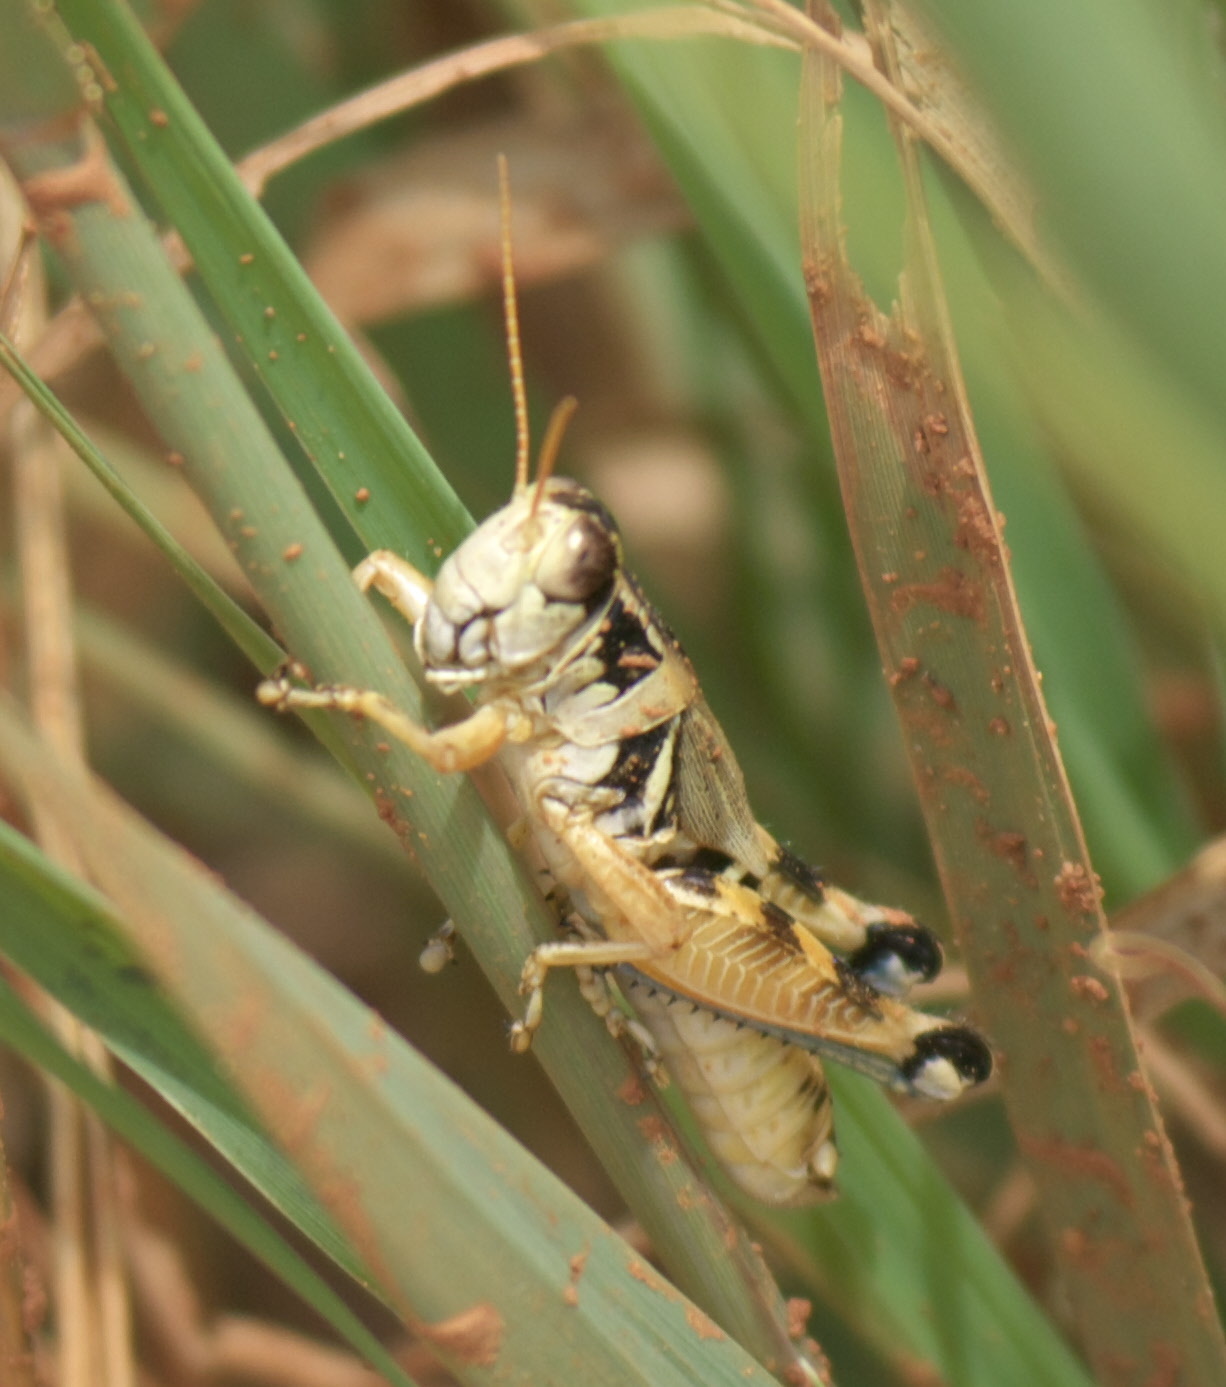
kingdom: Animalia
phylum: Arthropoda
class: Insecta
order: Orthoptera
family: Acrididae
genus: Melanoplus
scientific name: Melanoplus lakinus
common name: Lakin grasshopper
